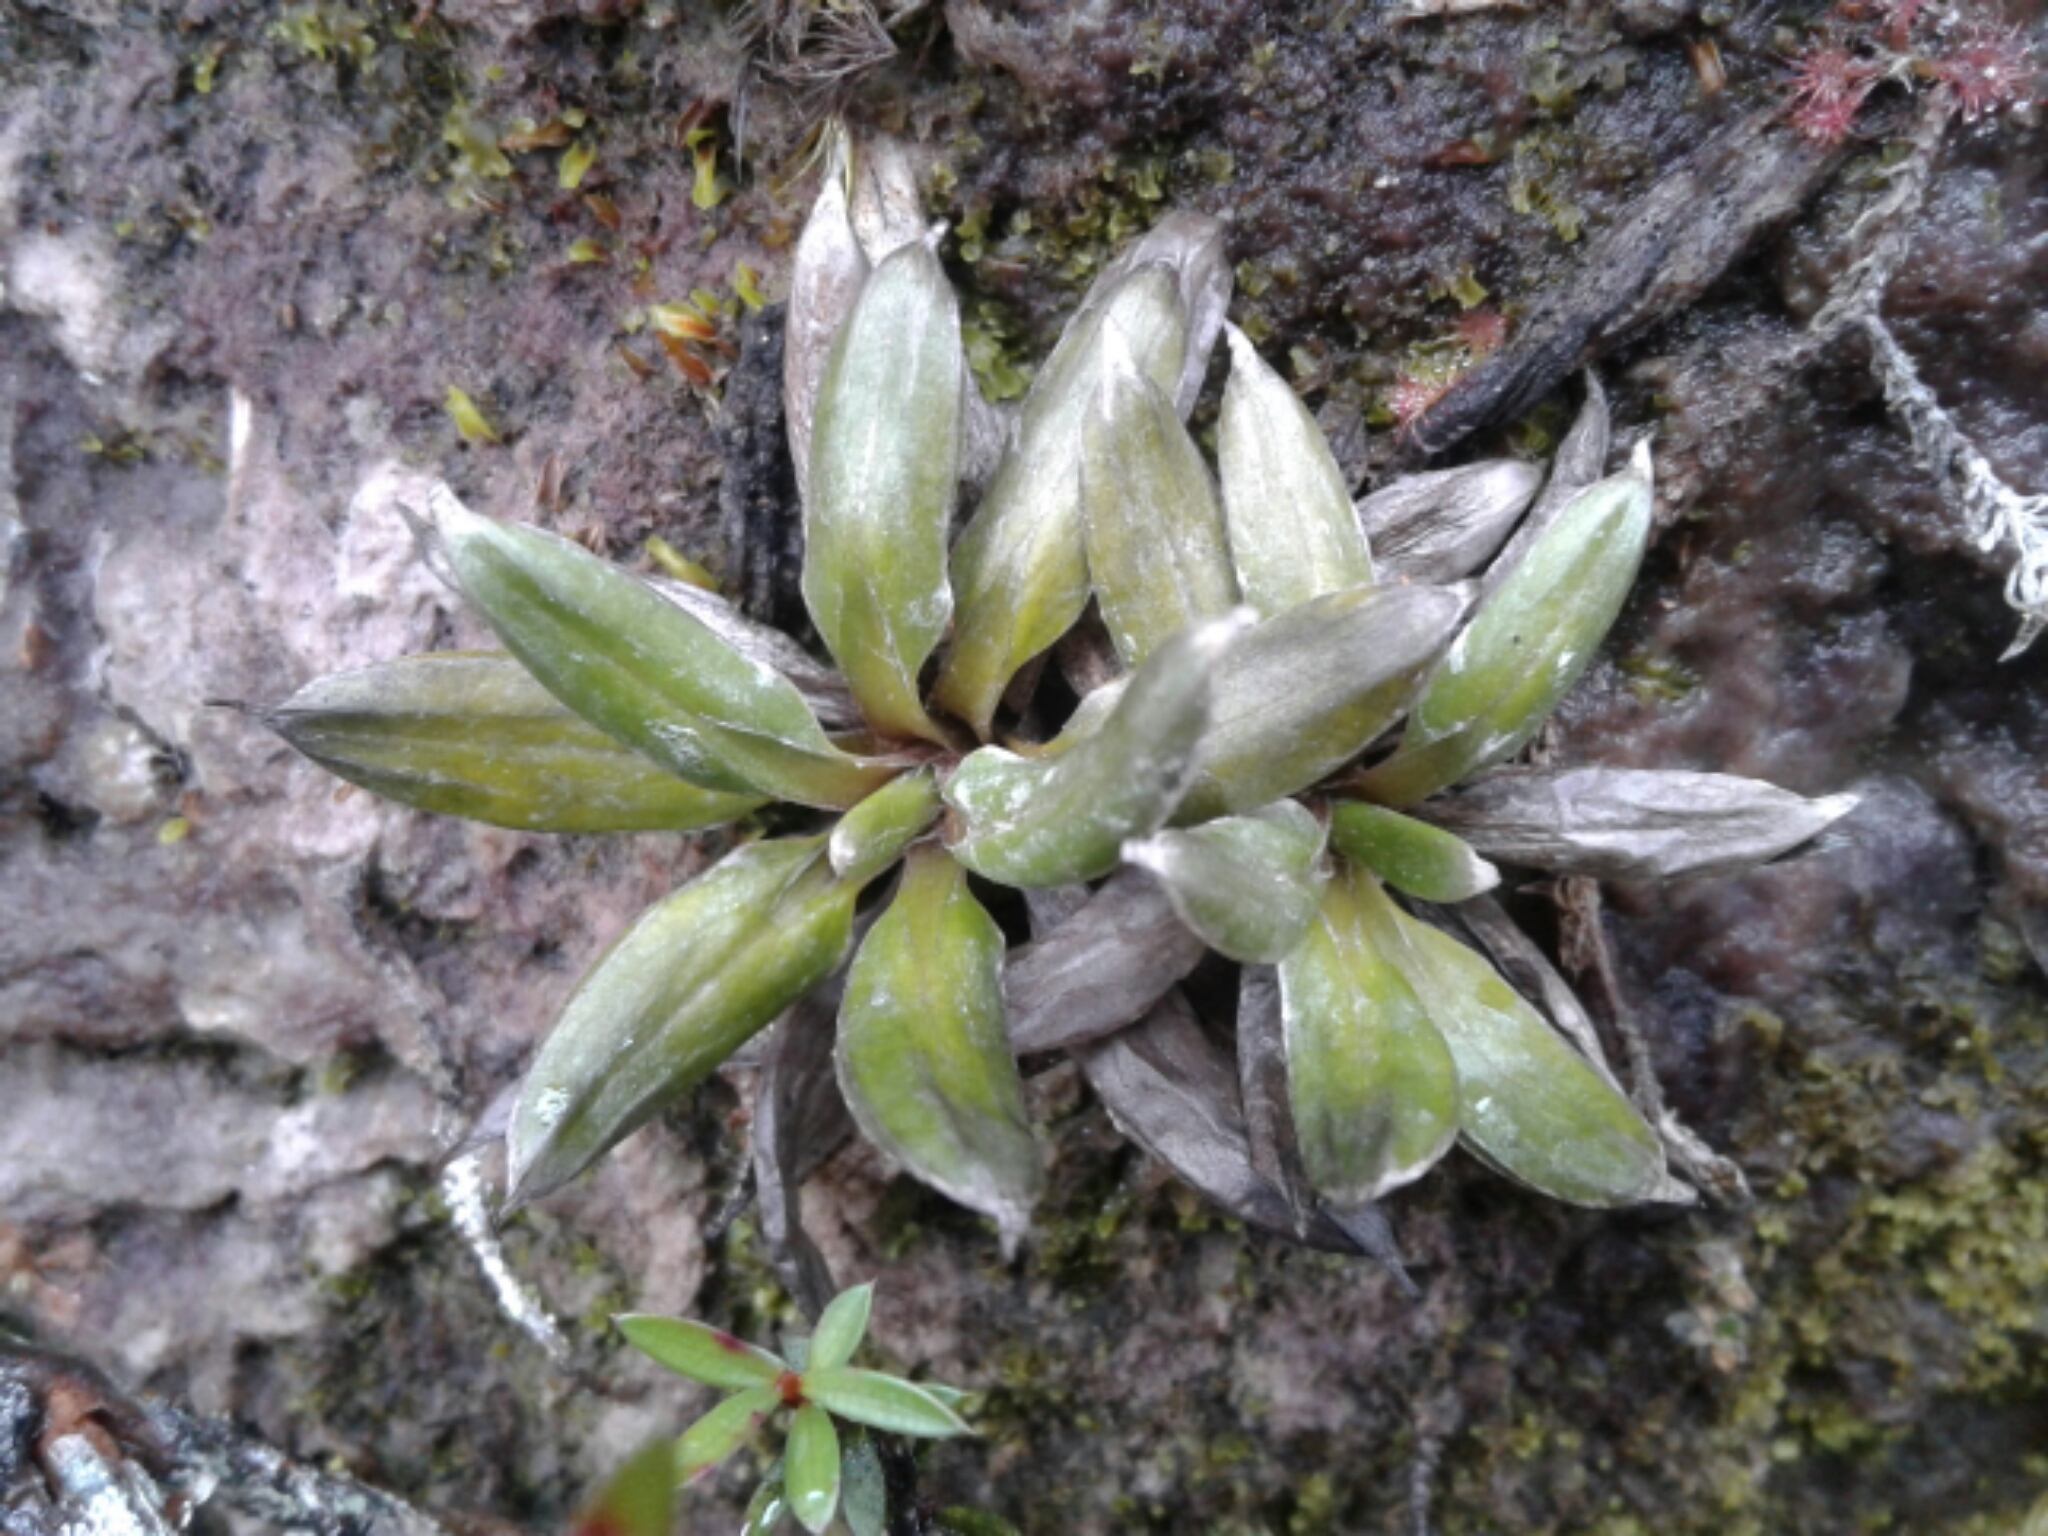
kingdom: Plantae
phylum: Tracheophyta
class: Magnoliopsida
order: Asterales
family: Asteraceae
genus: Celmisia
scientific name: Celmisia dubia
